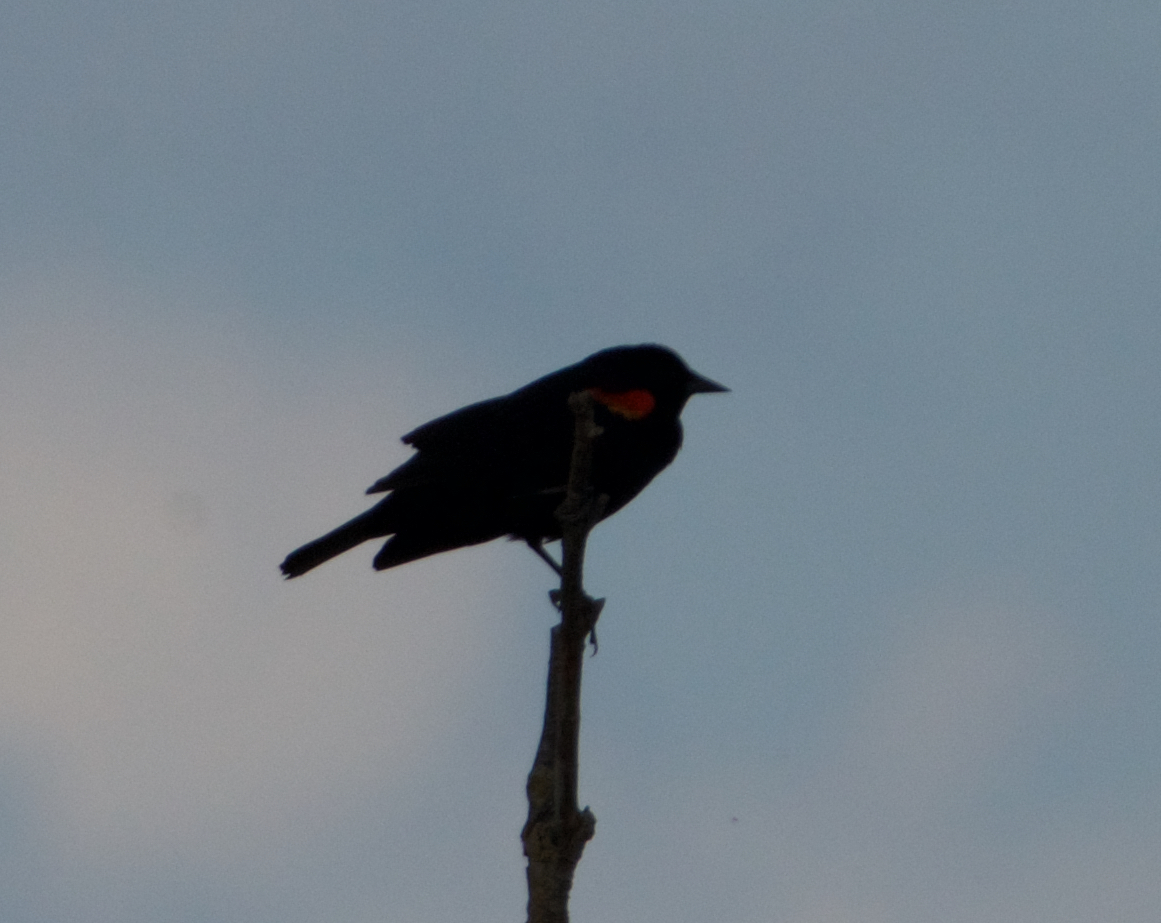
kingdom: Animalia
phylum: Chordata
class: Aves
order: Passeriformes
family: Icteridae
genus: Agelaius
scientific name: Agelaius phoeniceus
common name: Red-winged blackbird
